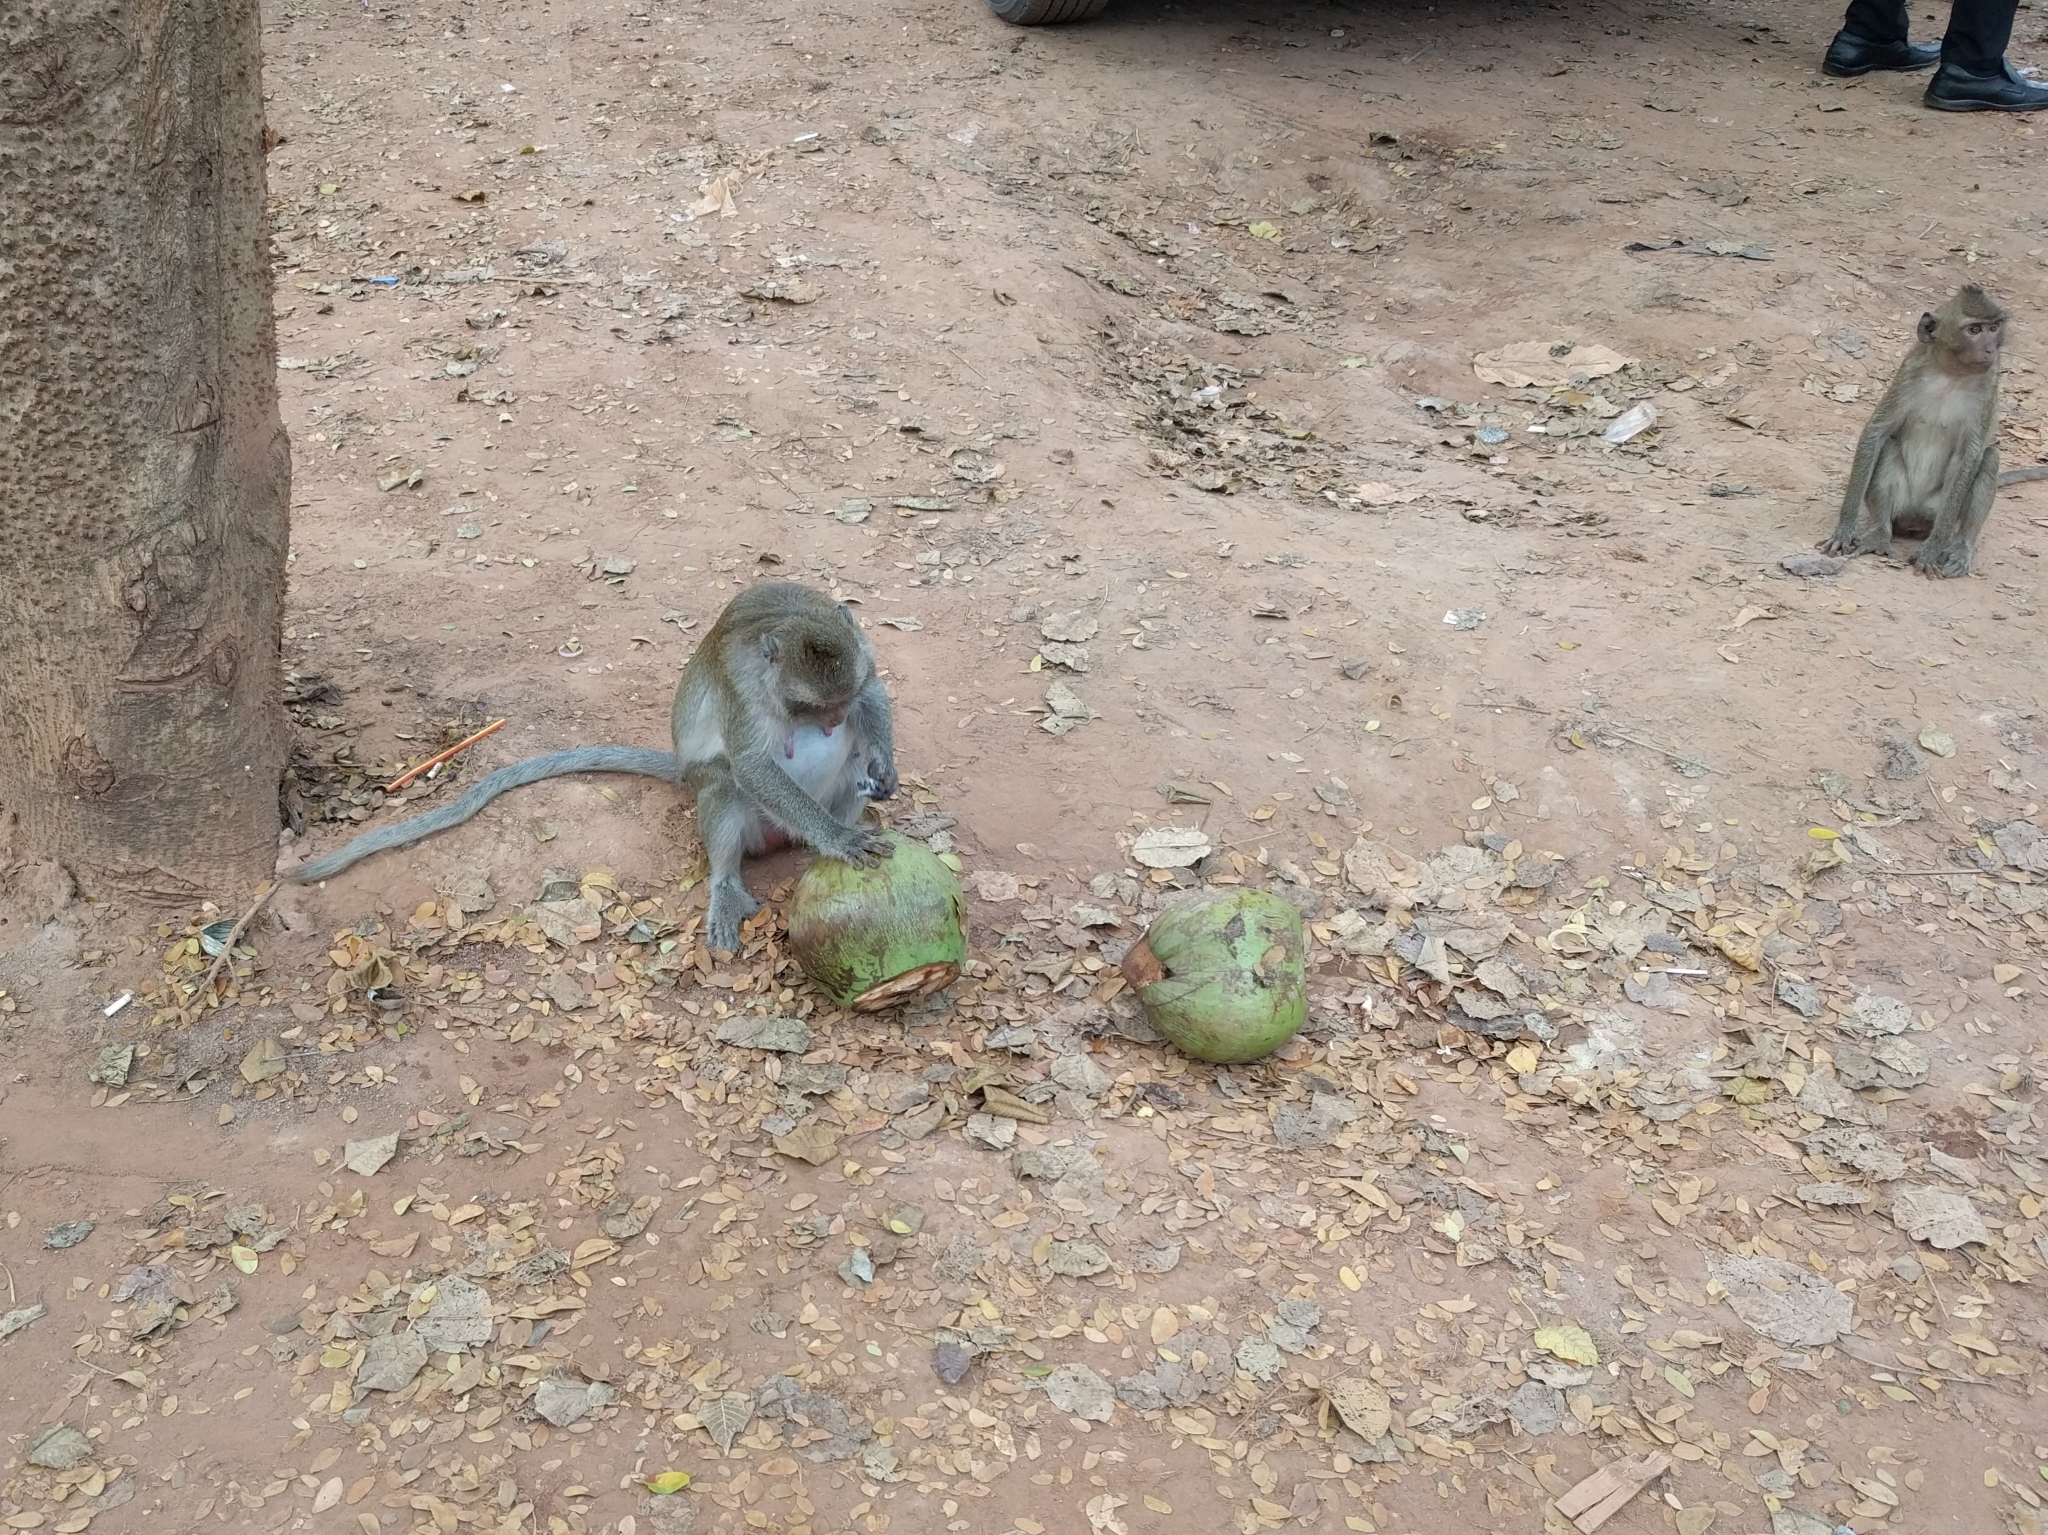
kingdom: Animalia
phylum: Chordata
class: Mammalia
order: Primates
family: Cercopithecidae
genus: Macaca
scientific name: Macaca fascicularis
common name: Crab-eating macaque
